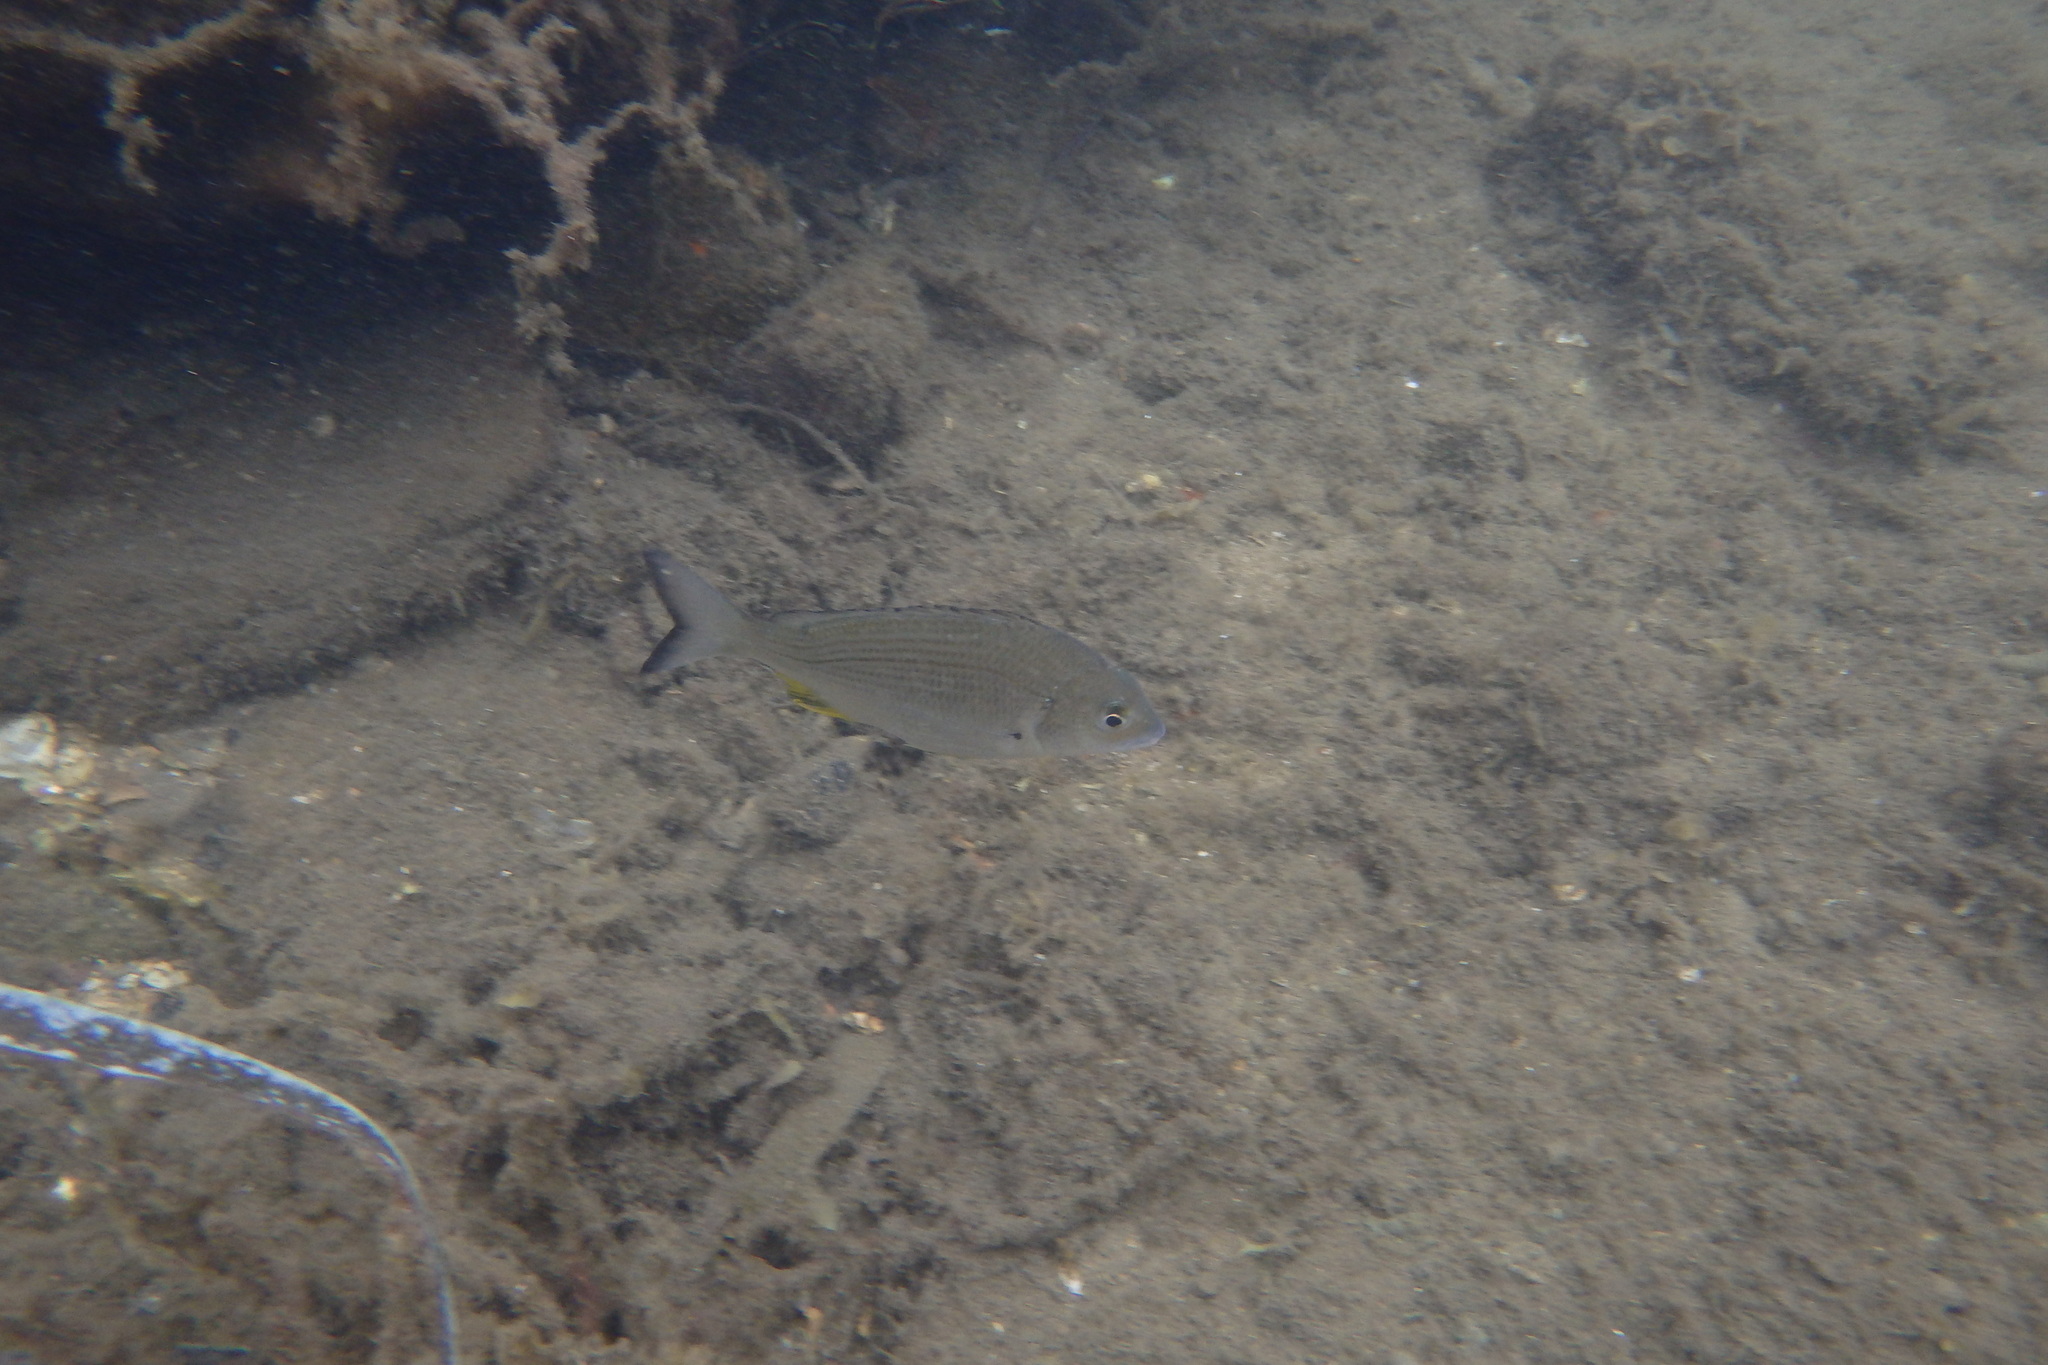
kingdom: Animalia
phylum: Chordata
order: Perciformes
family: Sparidae
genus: Acanthopagrus
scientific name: Acanthopagrus australis
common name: Surf bream
